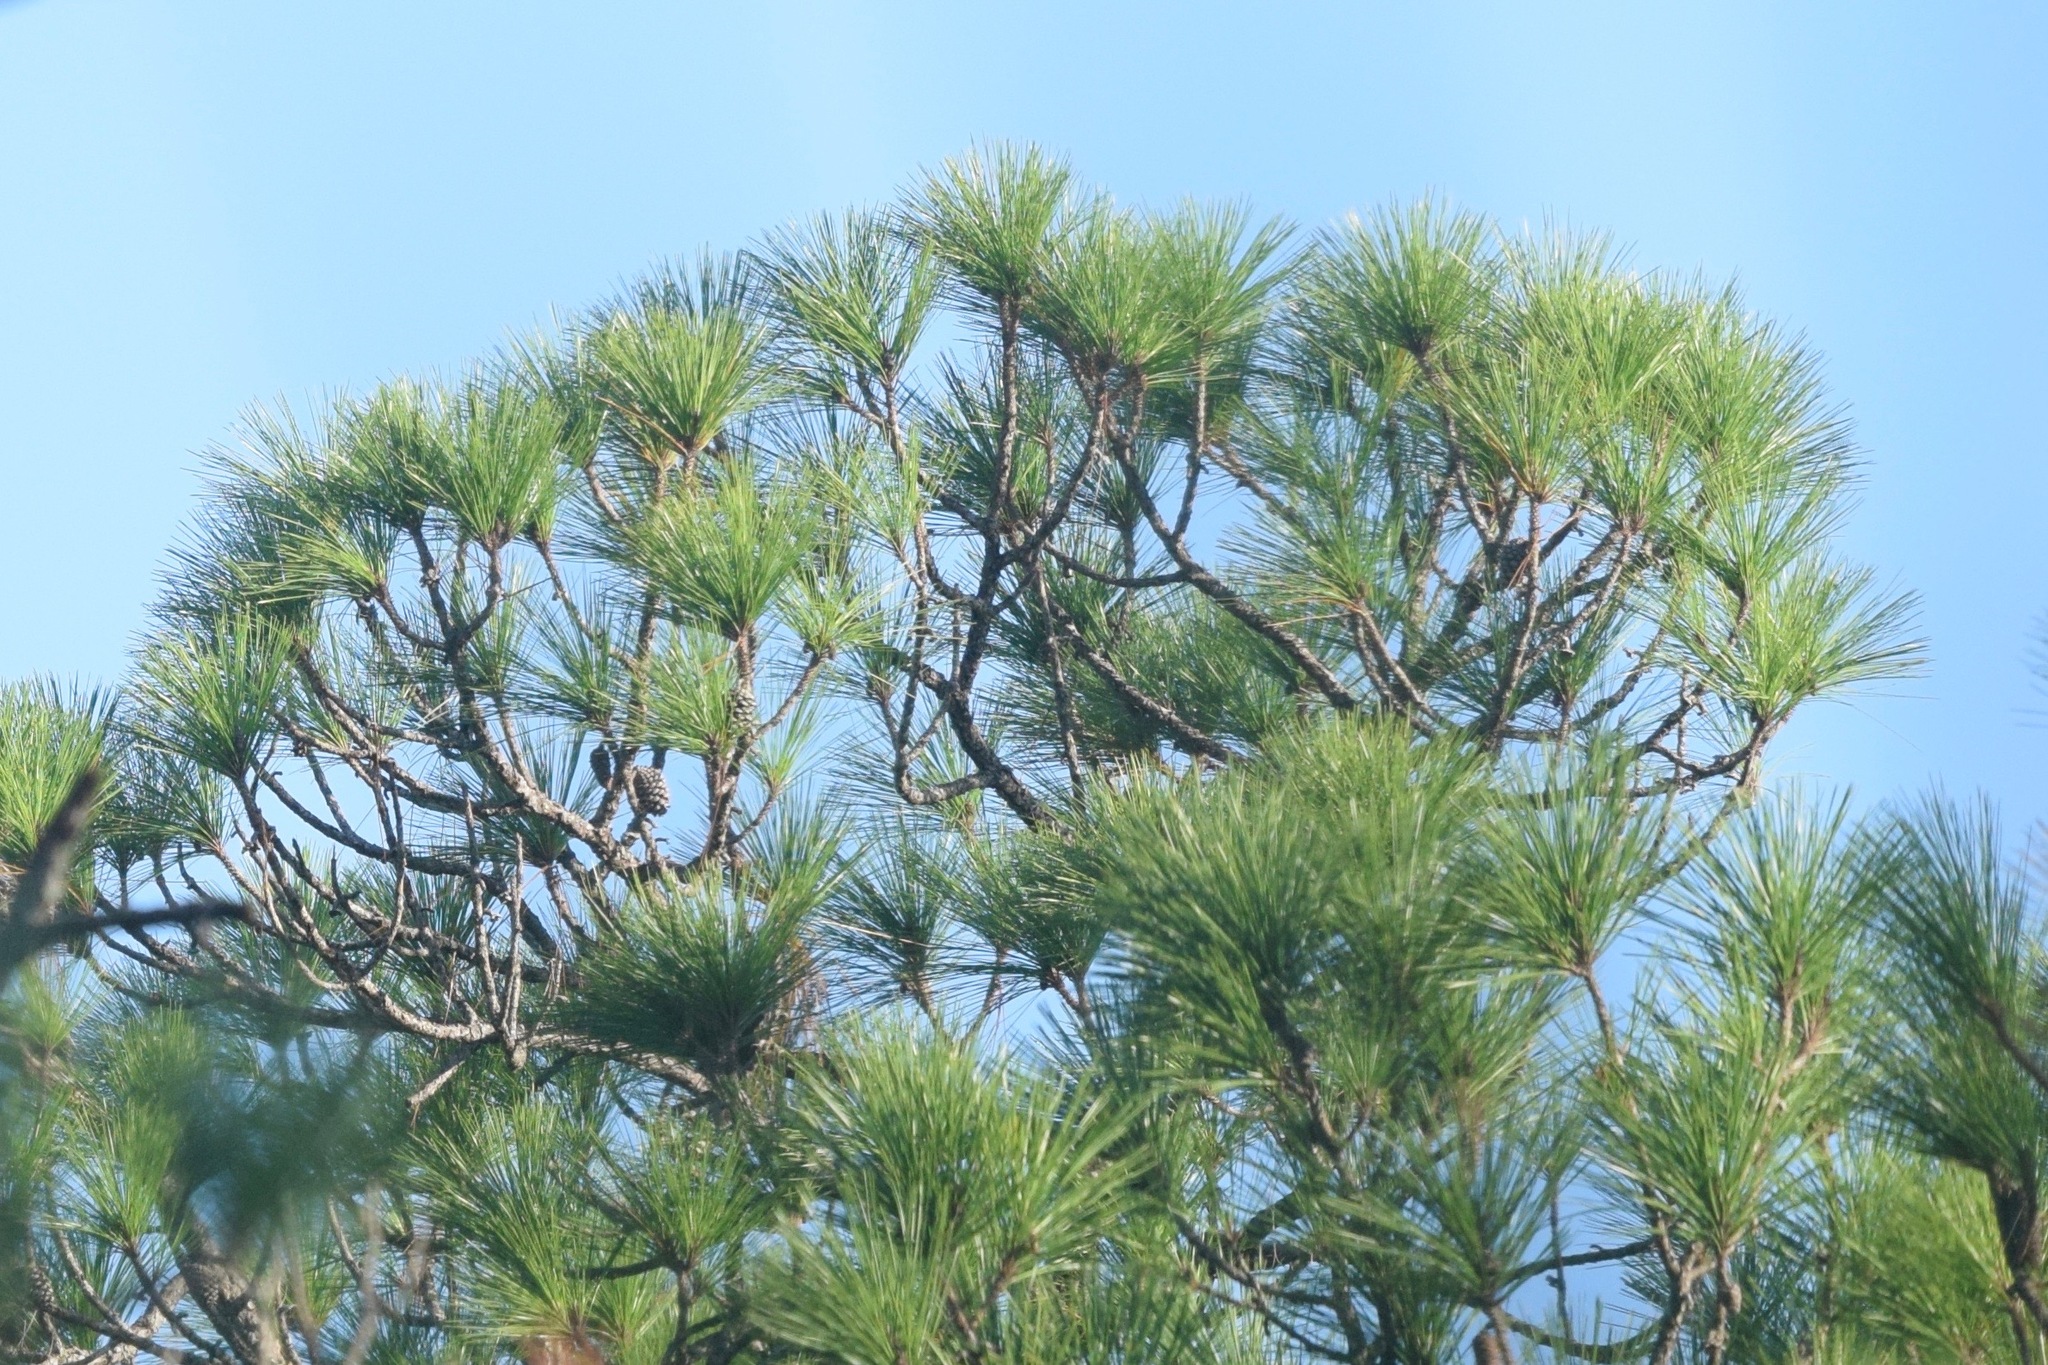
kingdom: Plantae
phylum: Tracheophyta
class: Pinopsida
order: Pinales
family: Pinaceae
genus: Pinus
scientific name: Pinus elliottii
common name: Slash pine
